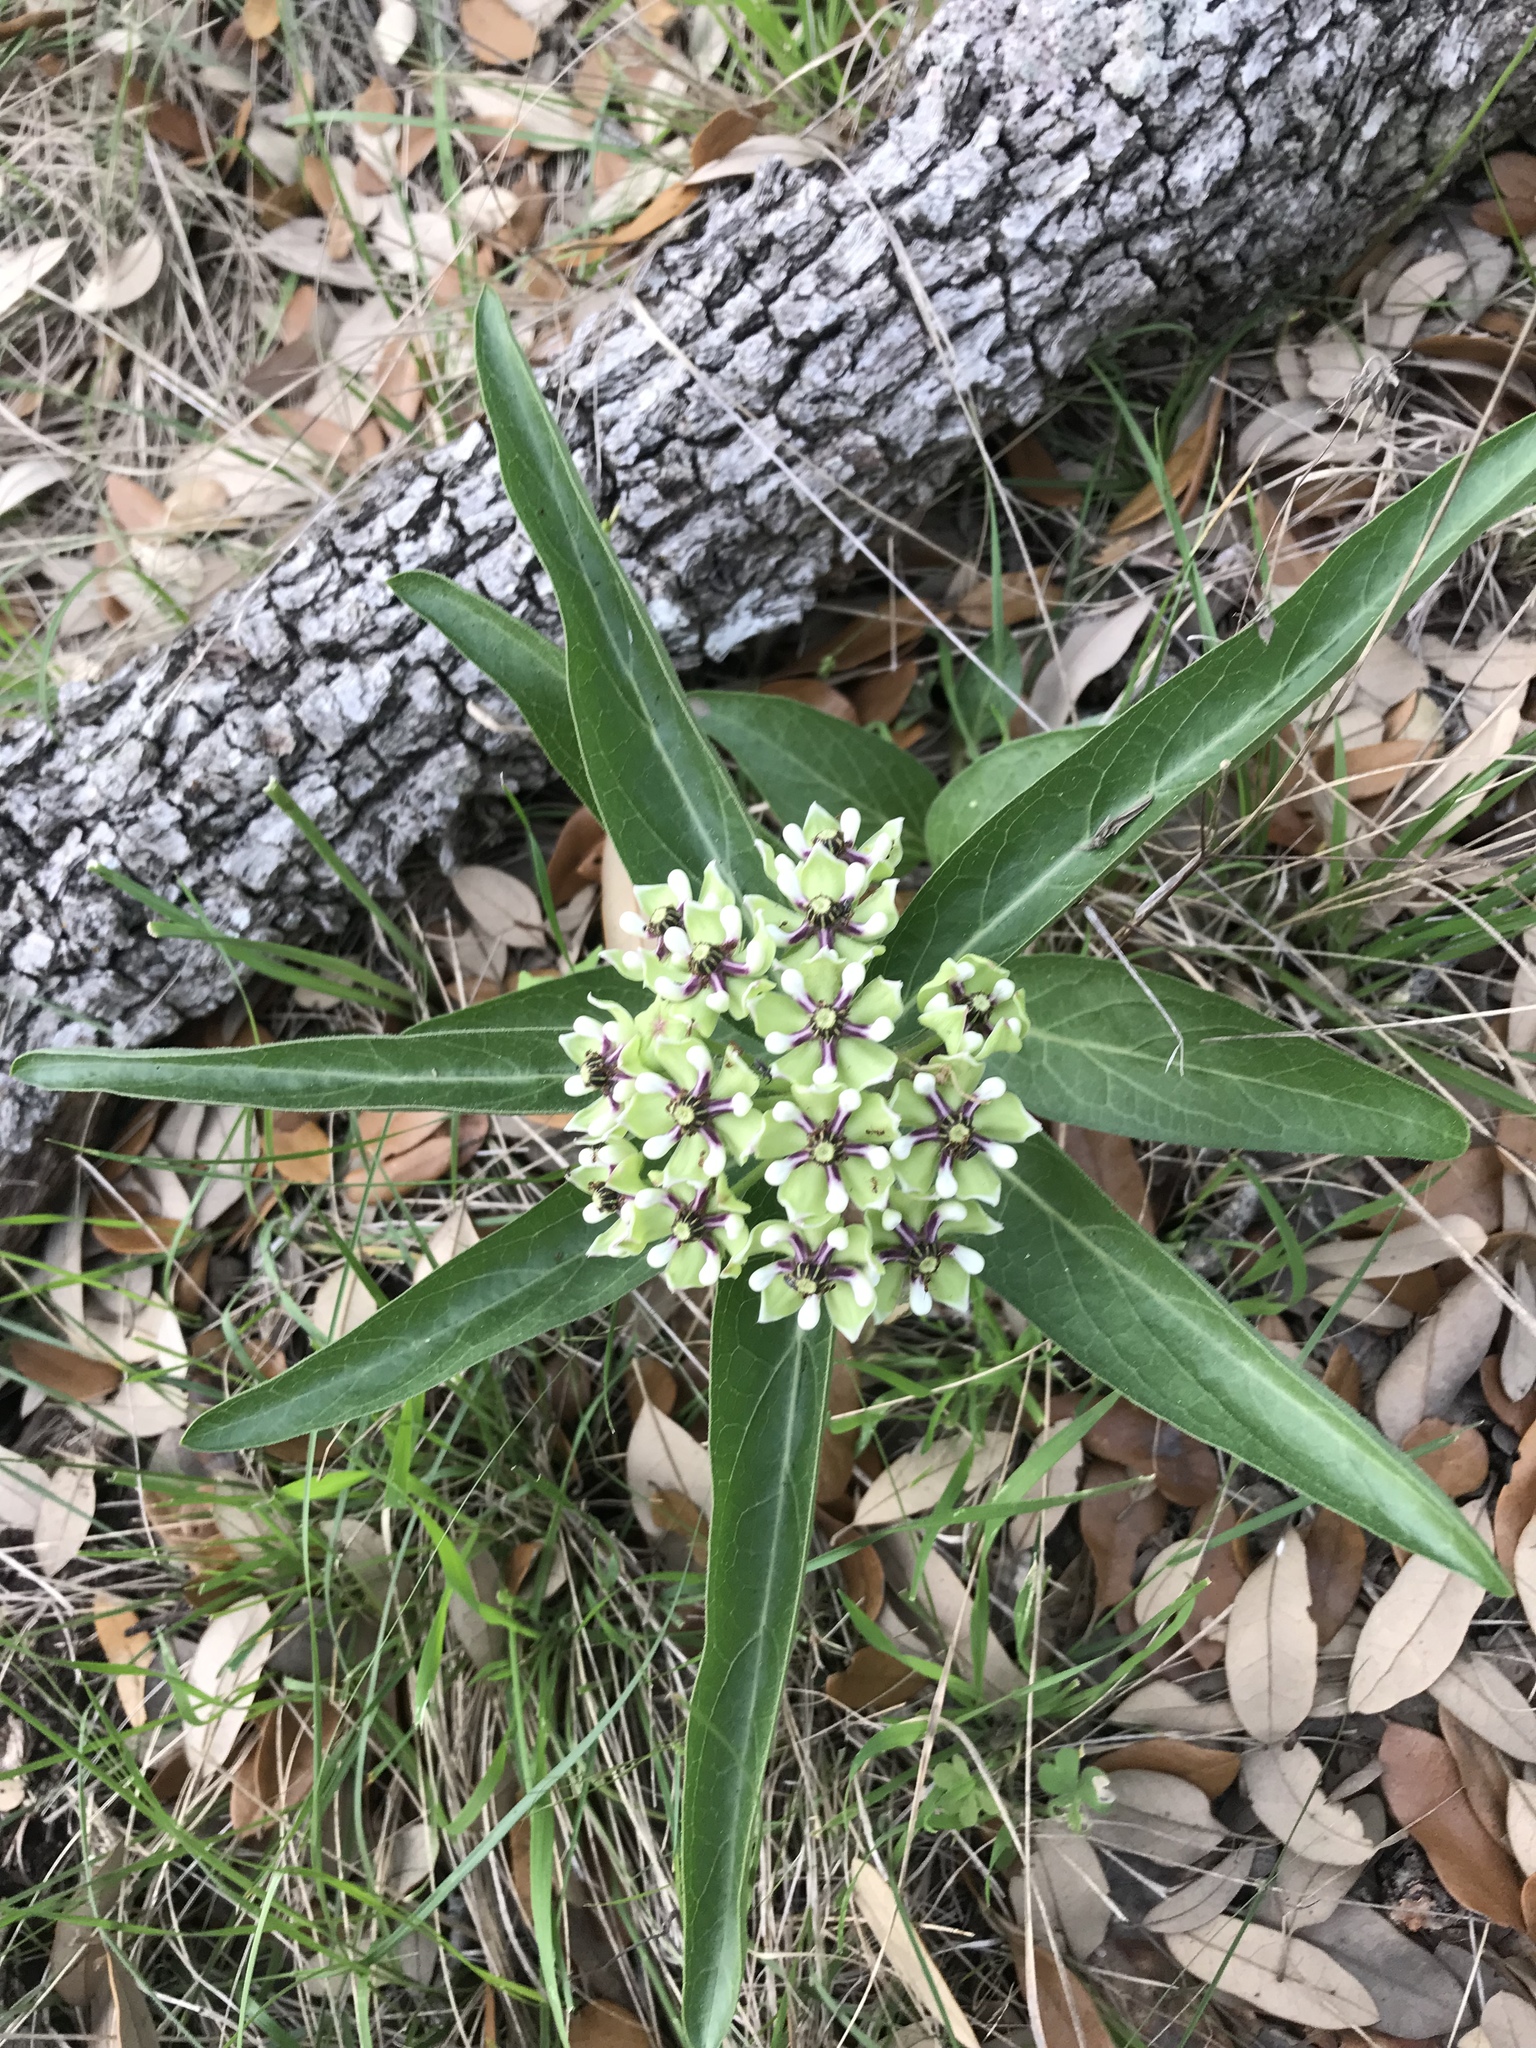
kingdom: Plantae
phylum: Tracheophyta
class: Magnoliopsida
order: Gentianales
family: Apocynaceae
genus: Asclepias
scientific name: Asclepias asperula
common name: Antelope horns
